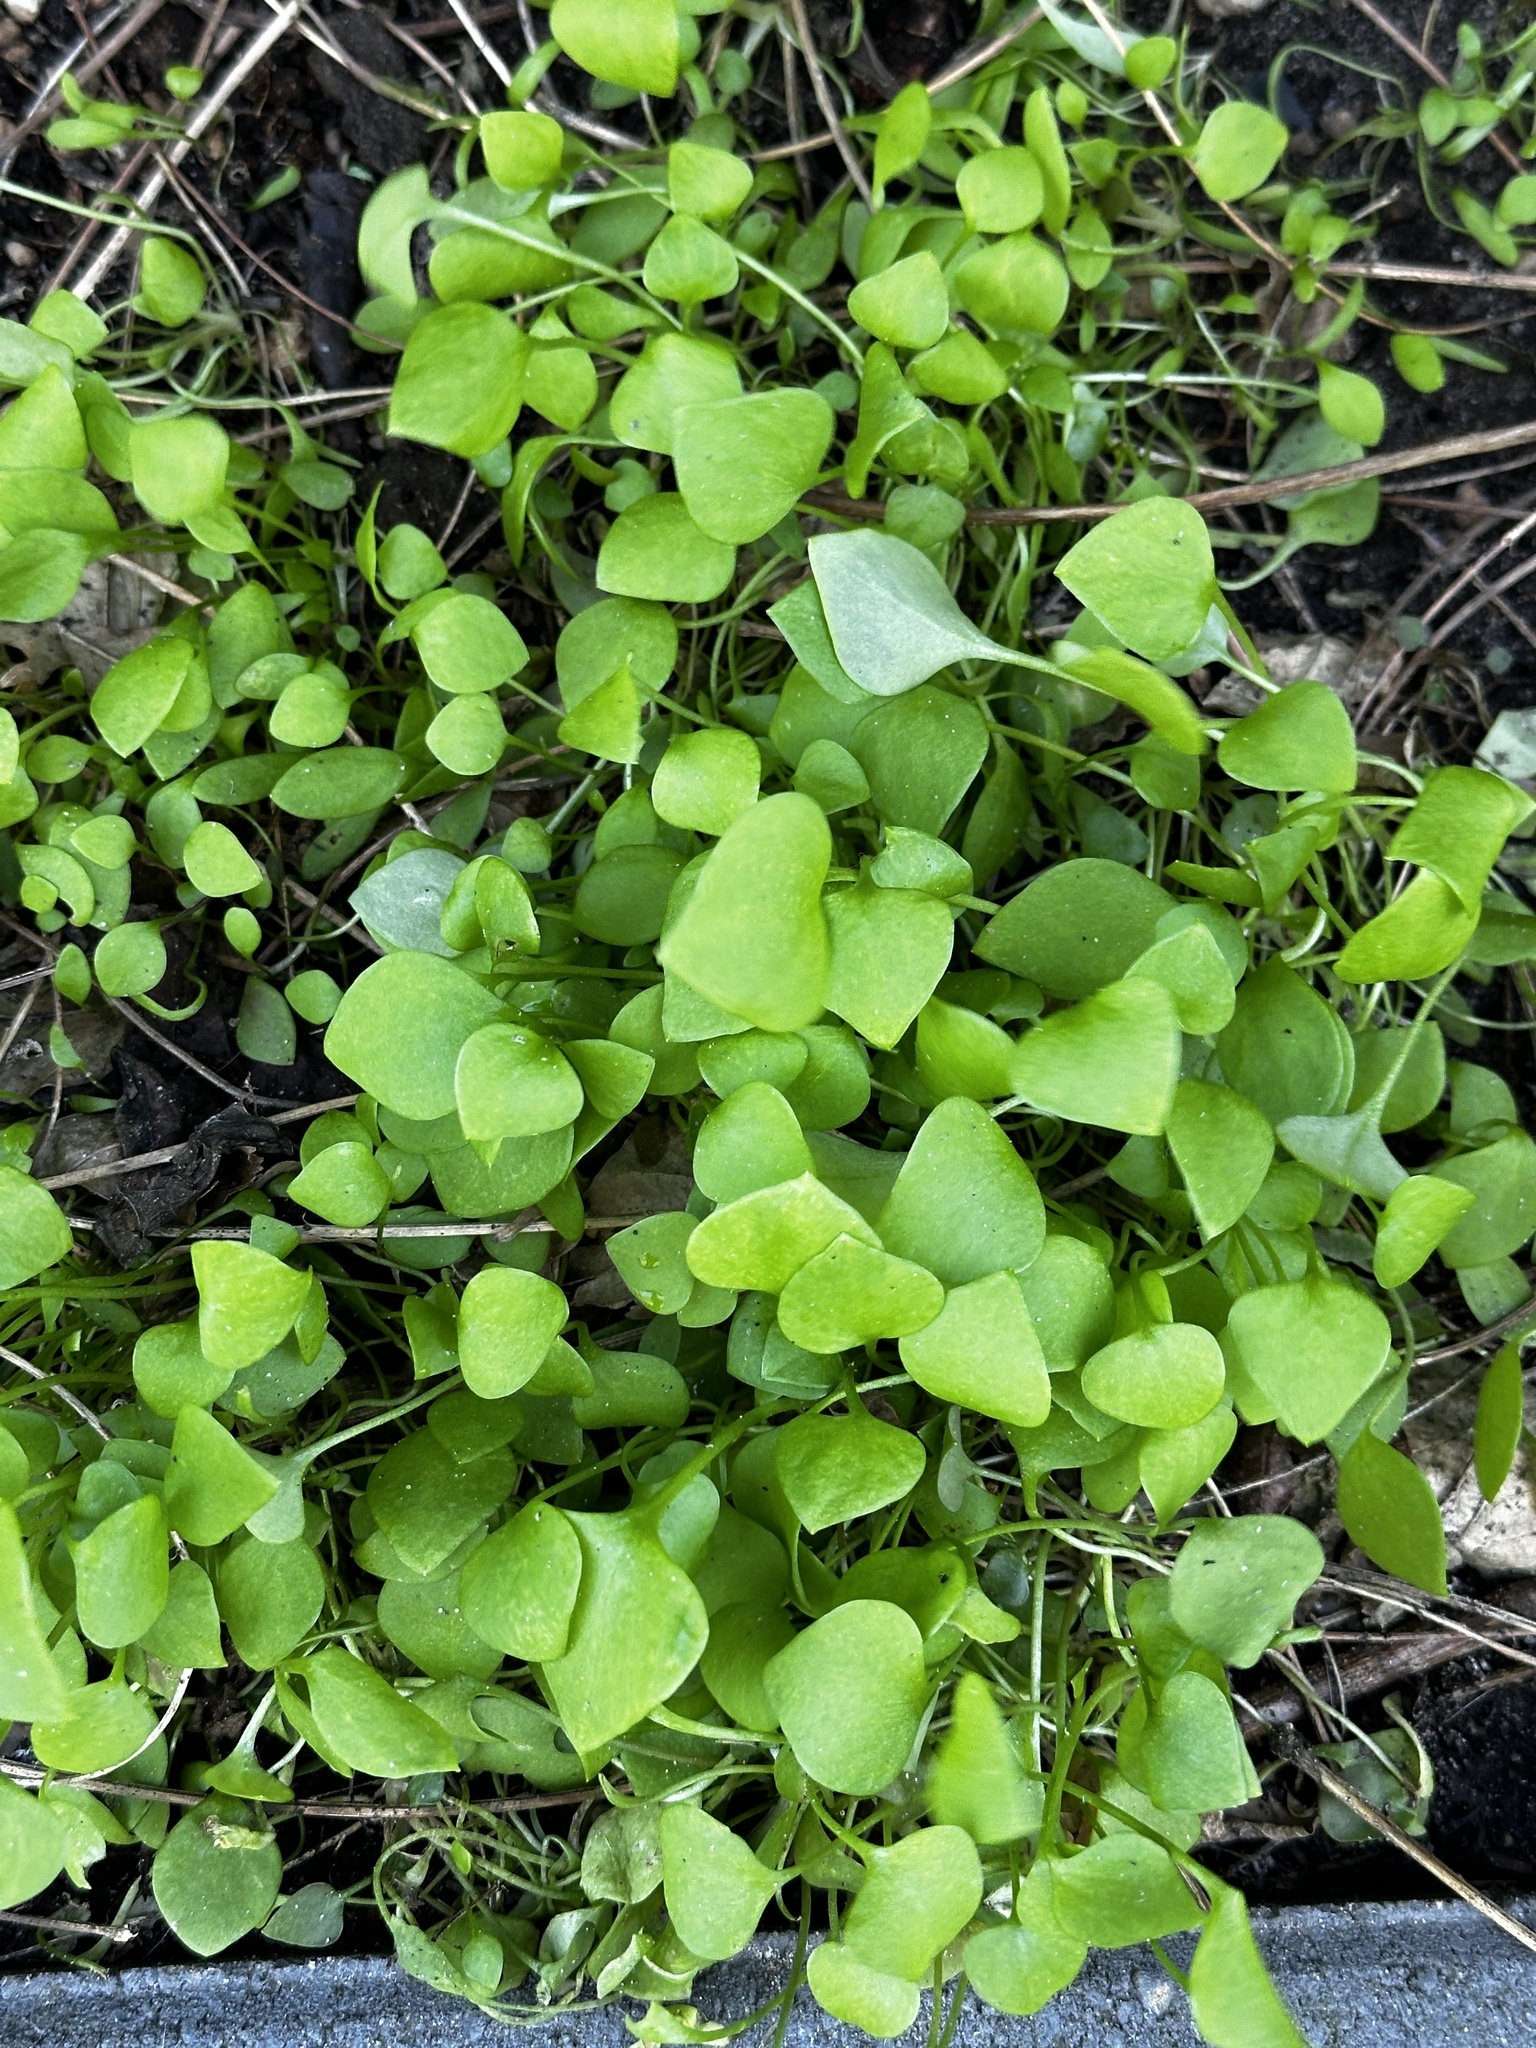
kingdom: Plantae
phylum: Tracheophyta
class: Magnoliopsida
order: Caryophyllales
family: Montiaceae
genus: Claytonia
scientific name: Claytonia perfoliata
